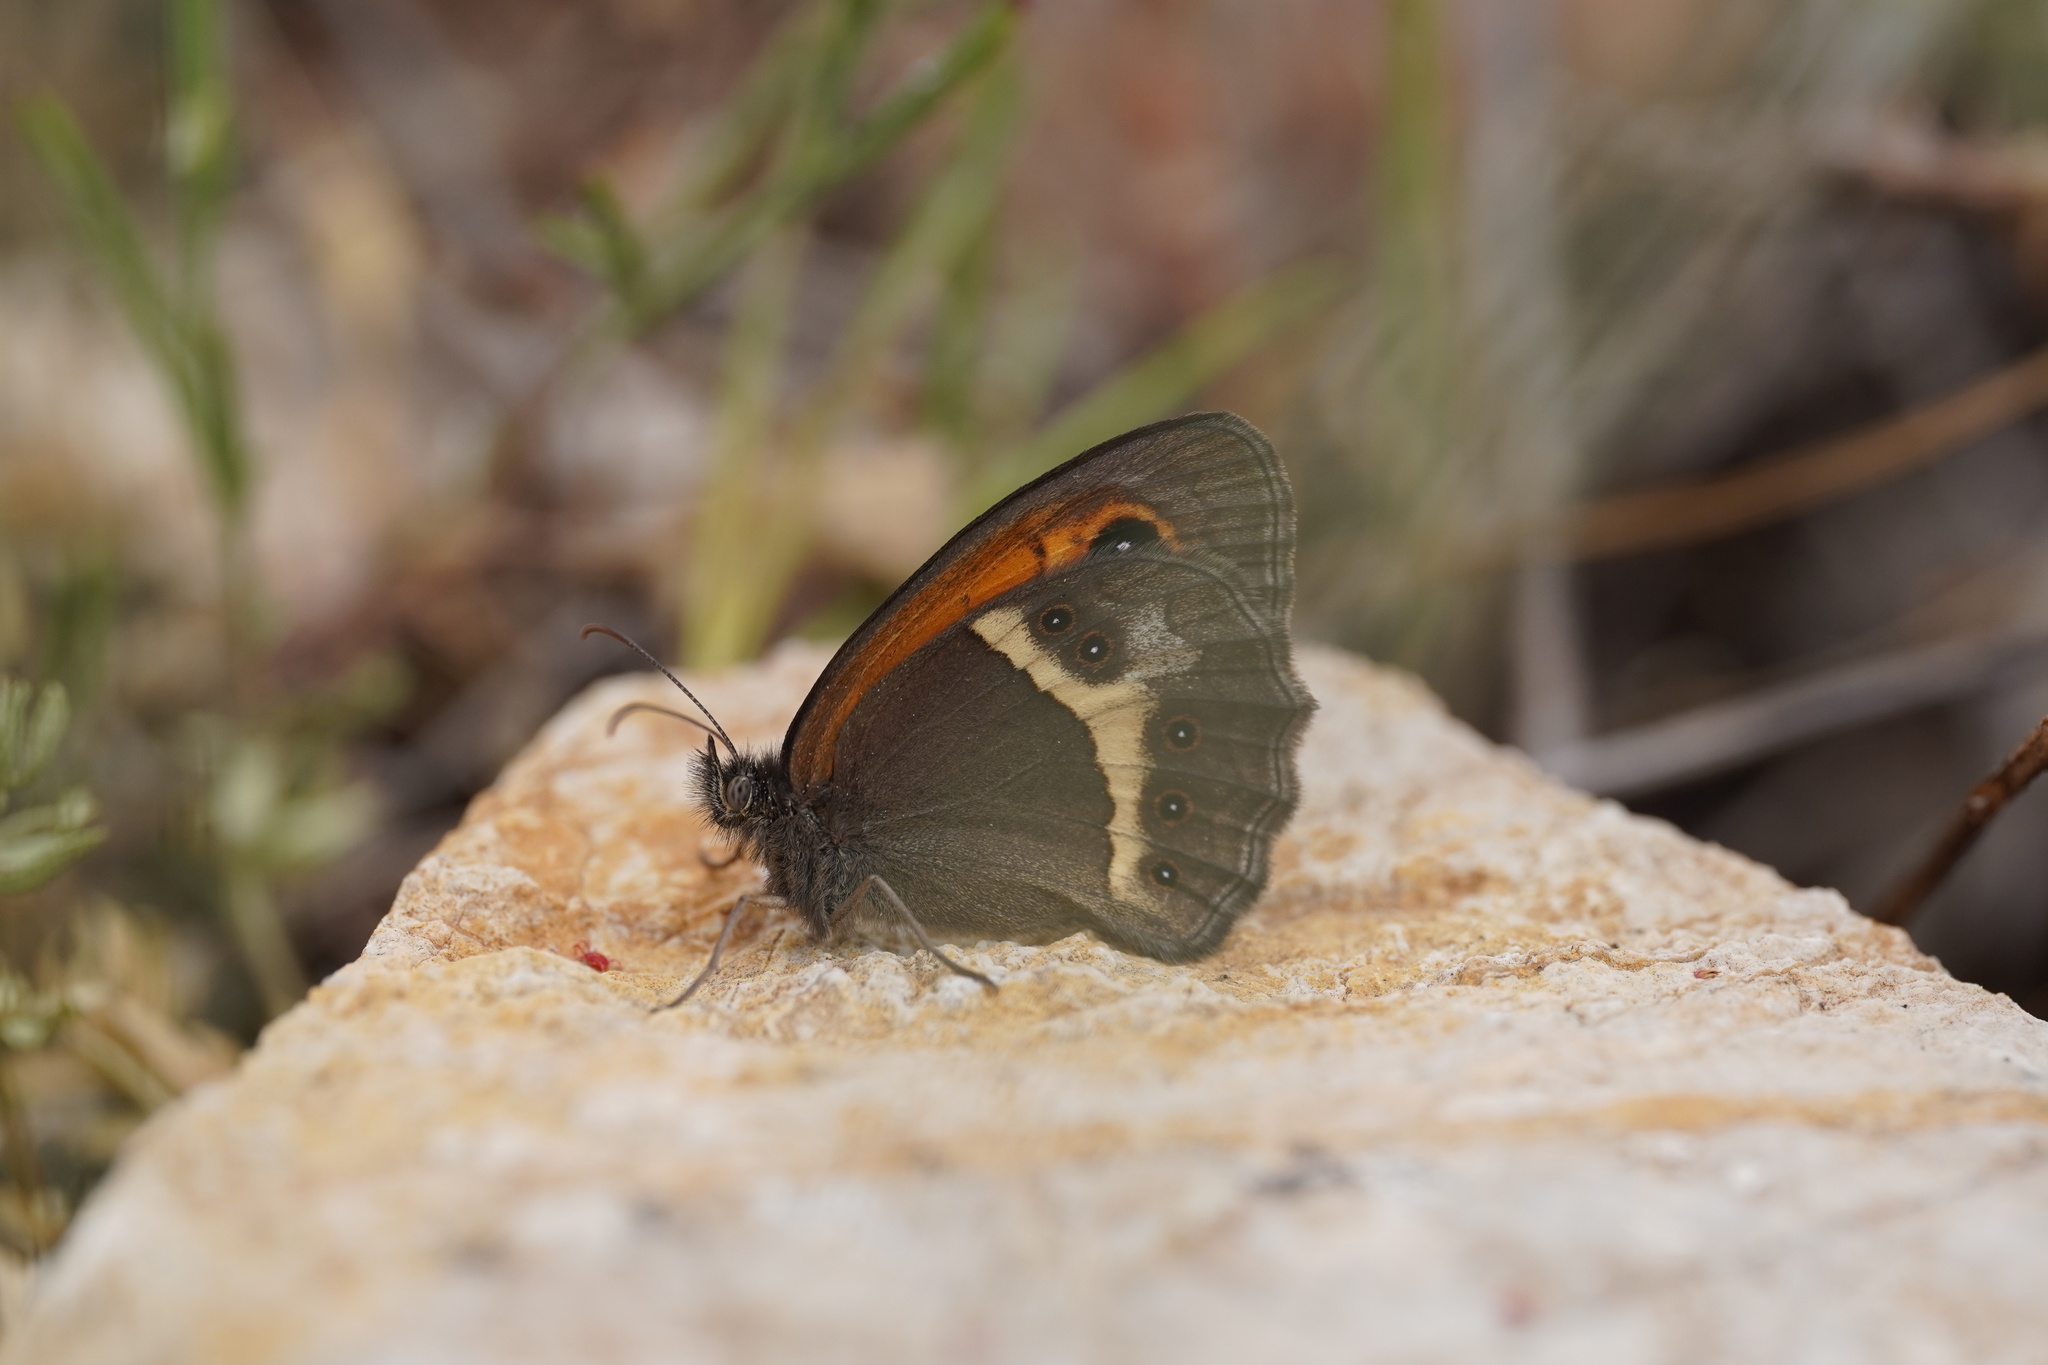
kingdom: Animalia
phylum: Arthropoda
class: Insecta
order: Lepidoptera
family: Nymphalidae
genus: Pyronia
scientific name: Pyronia bathseba
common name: Spanish gatekeeper
